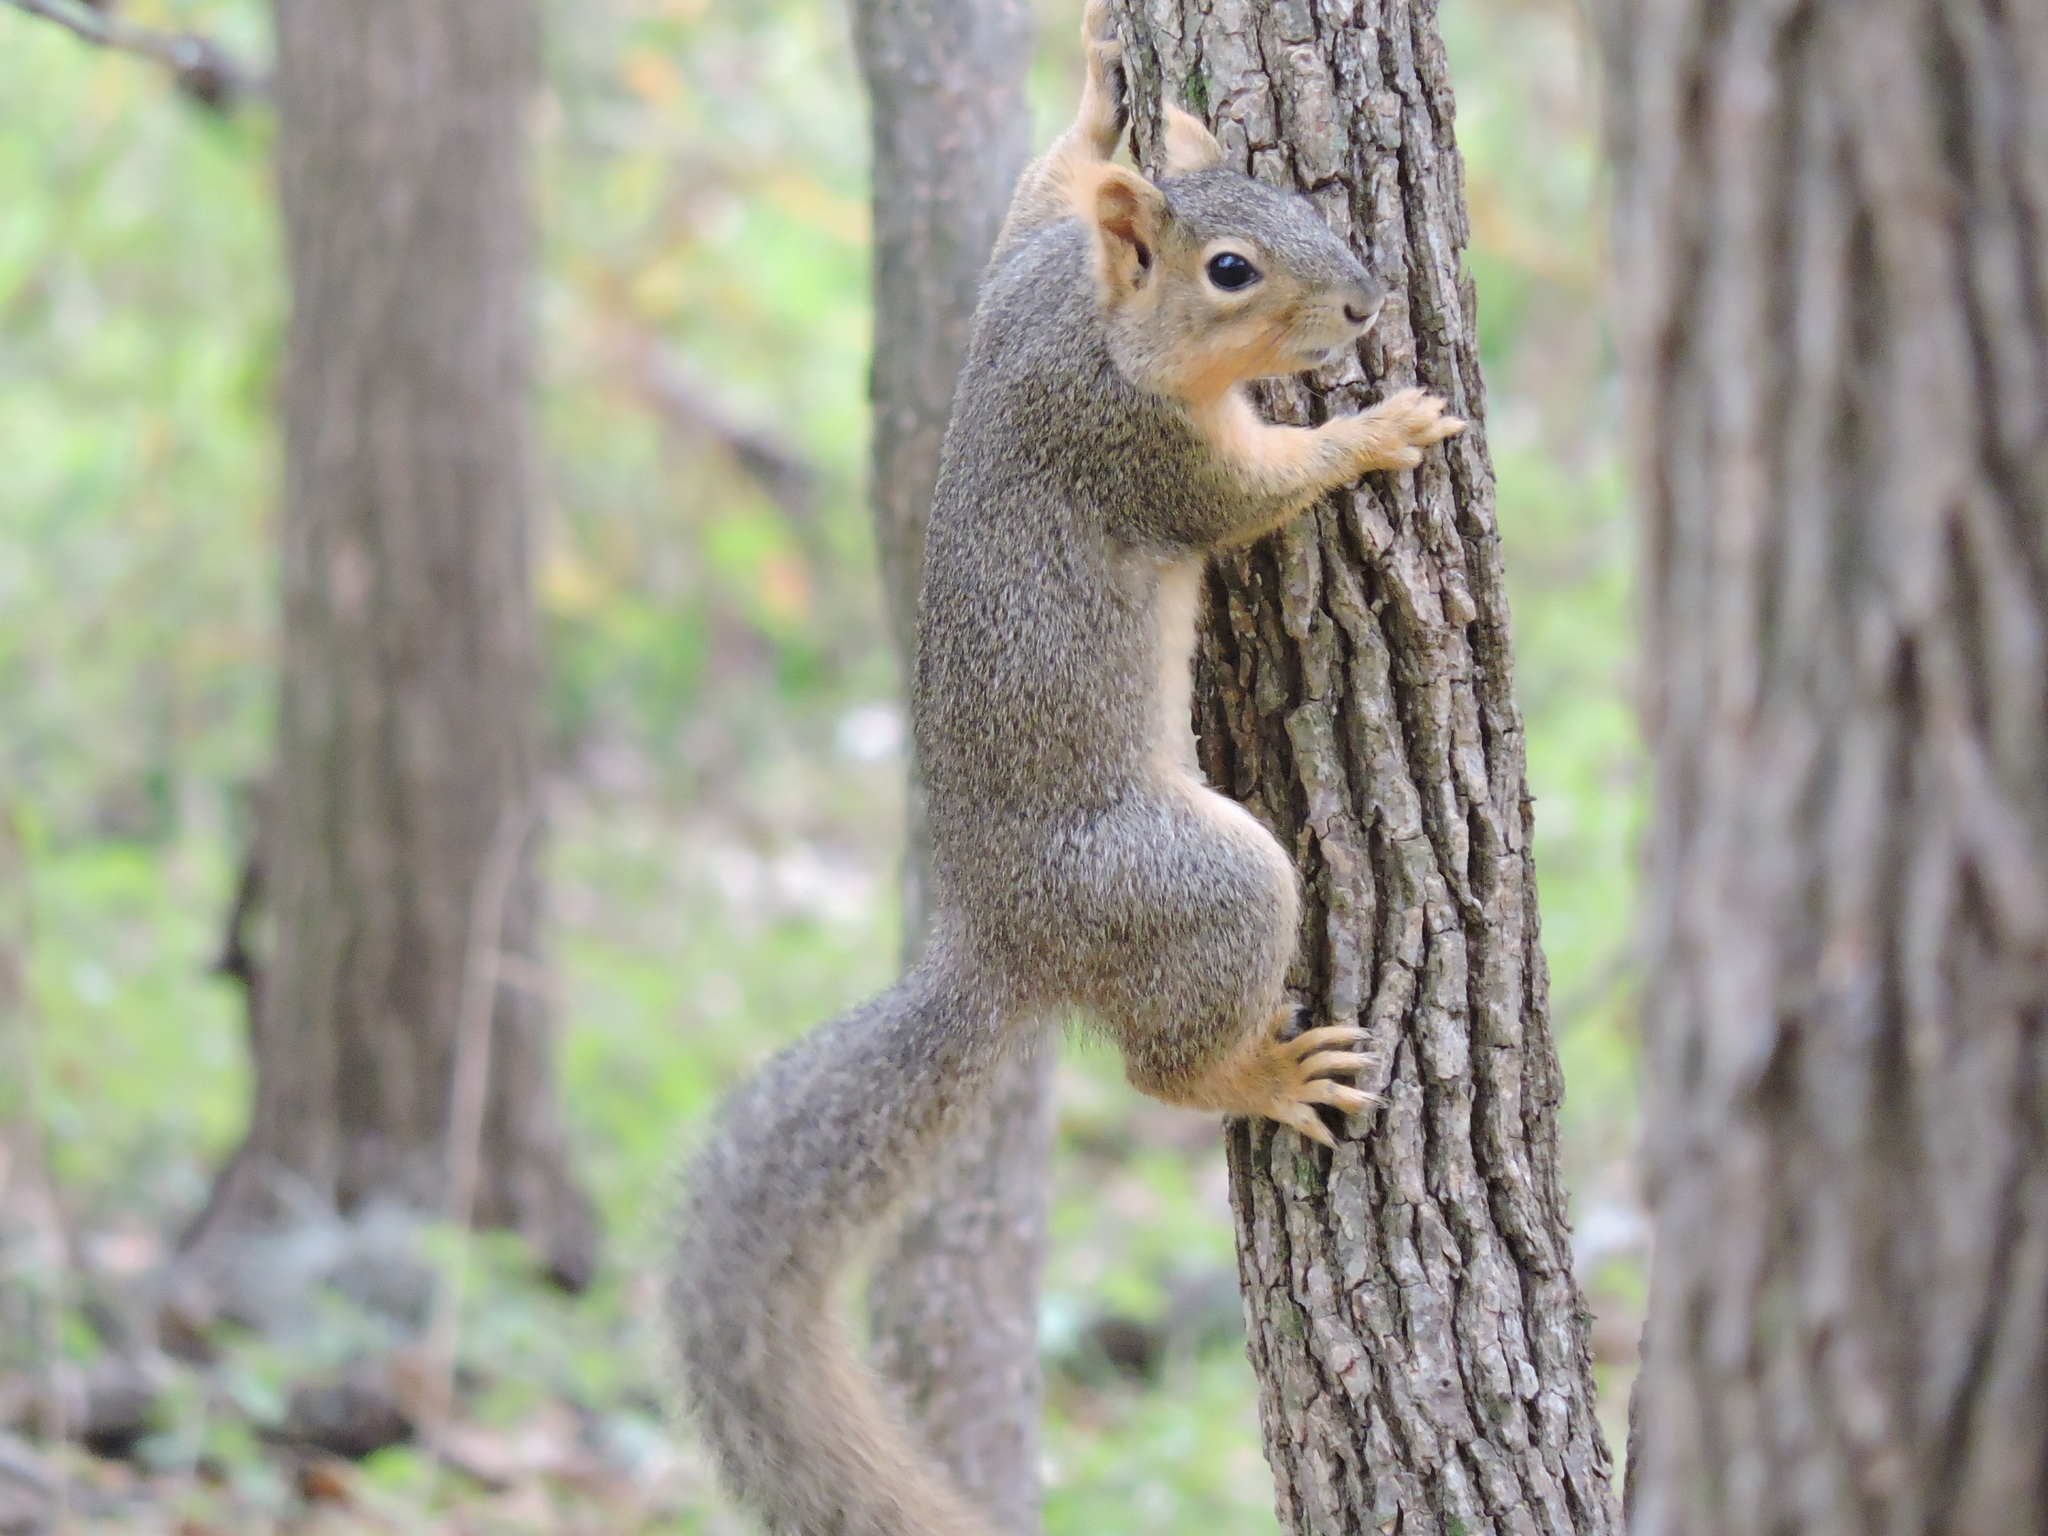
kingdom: Animalia
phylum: Chordata
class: Mammalia
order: Rodentia
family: Sciuridae
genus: Sciurus
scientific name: Sciurus niger
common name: Fox squirrel
